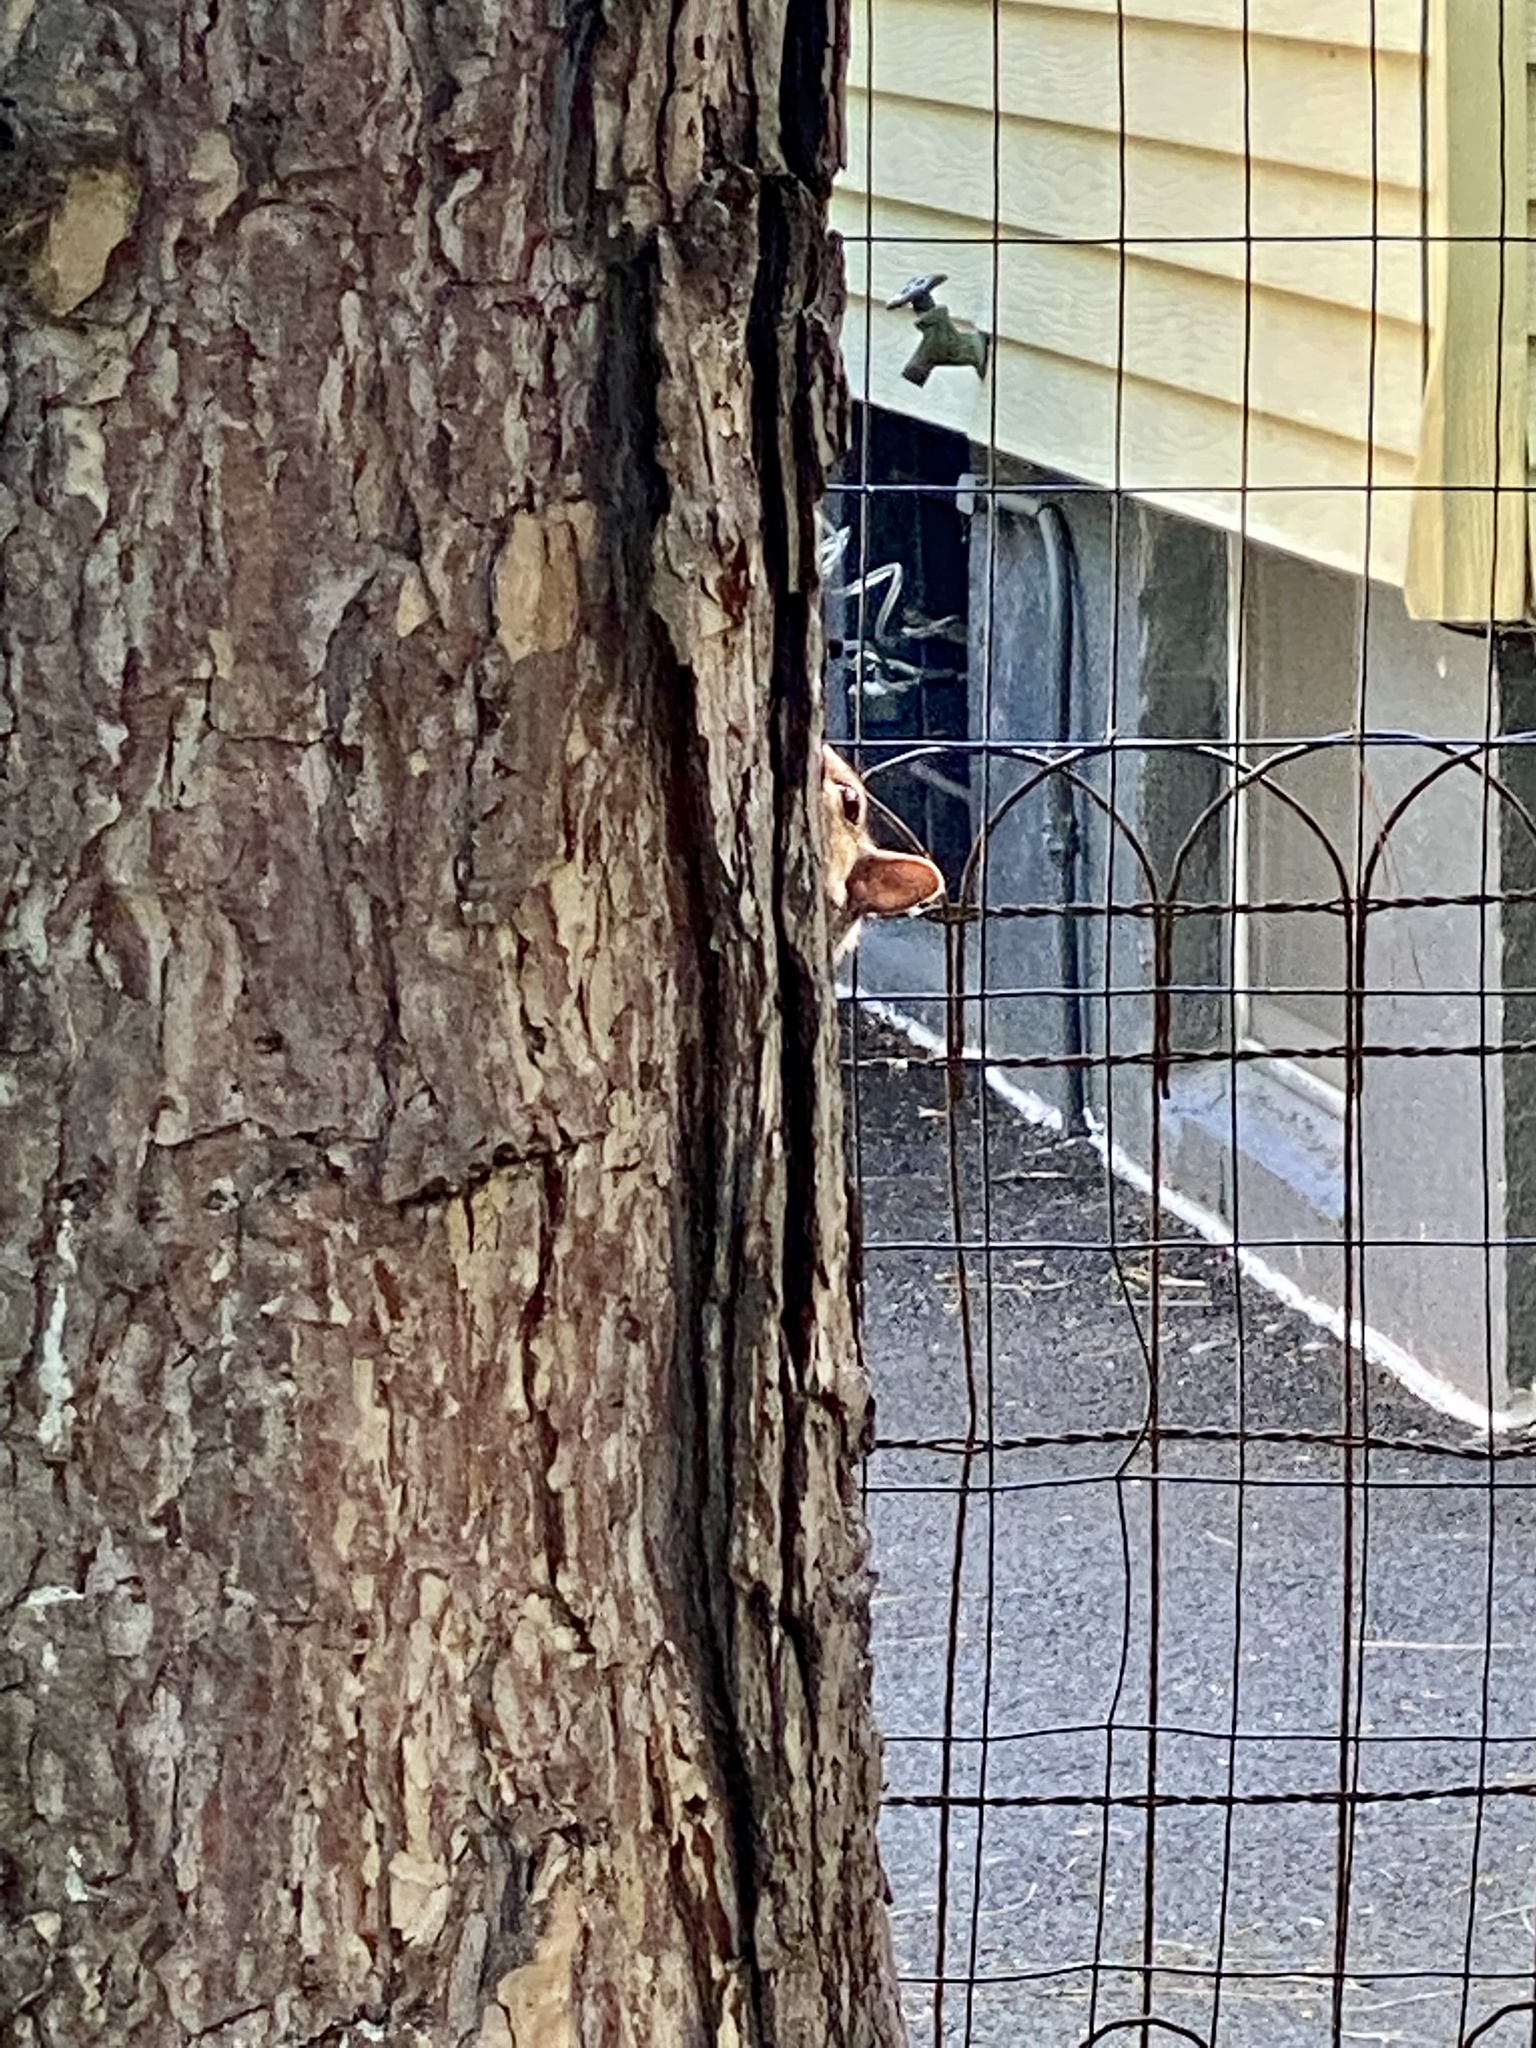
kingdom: Animalia
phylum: Chordata
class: Mammalia
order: Rodentia
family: Sciuridae
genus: Sciurus
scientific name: Sciurus carolinensis
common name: Eastern gray squirrel
